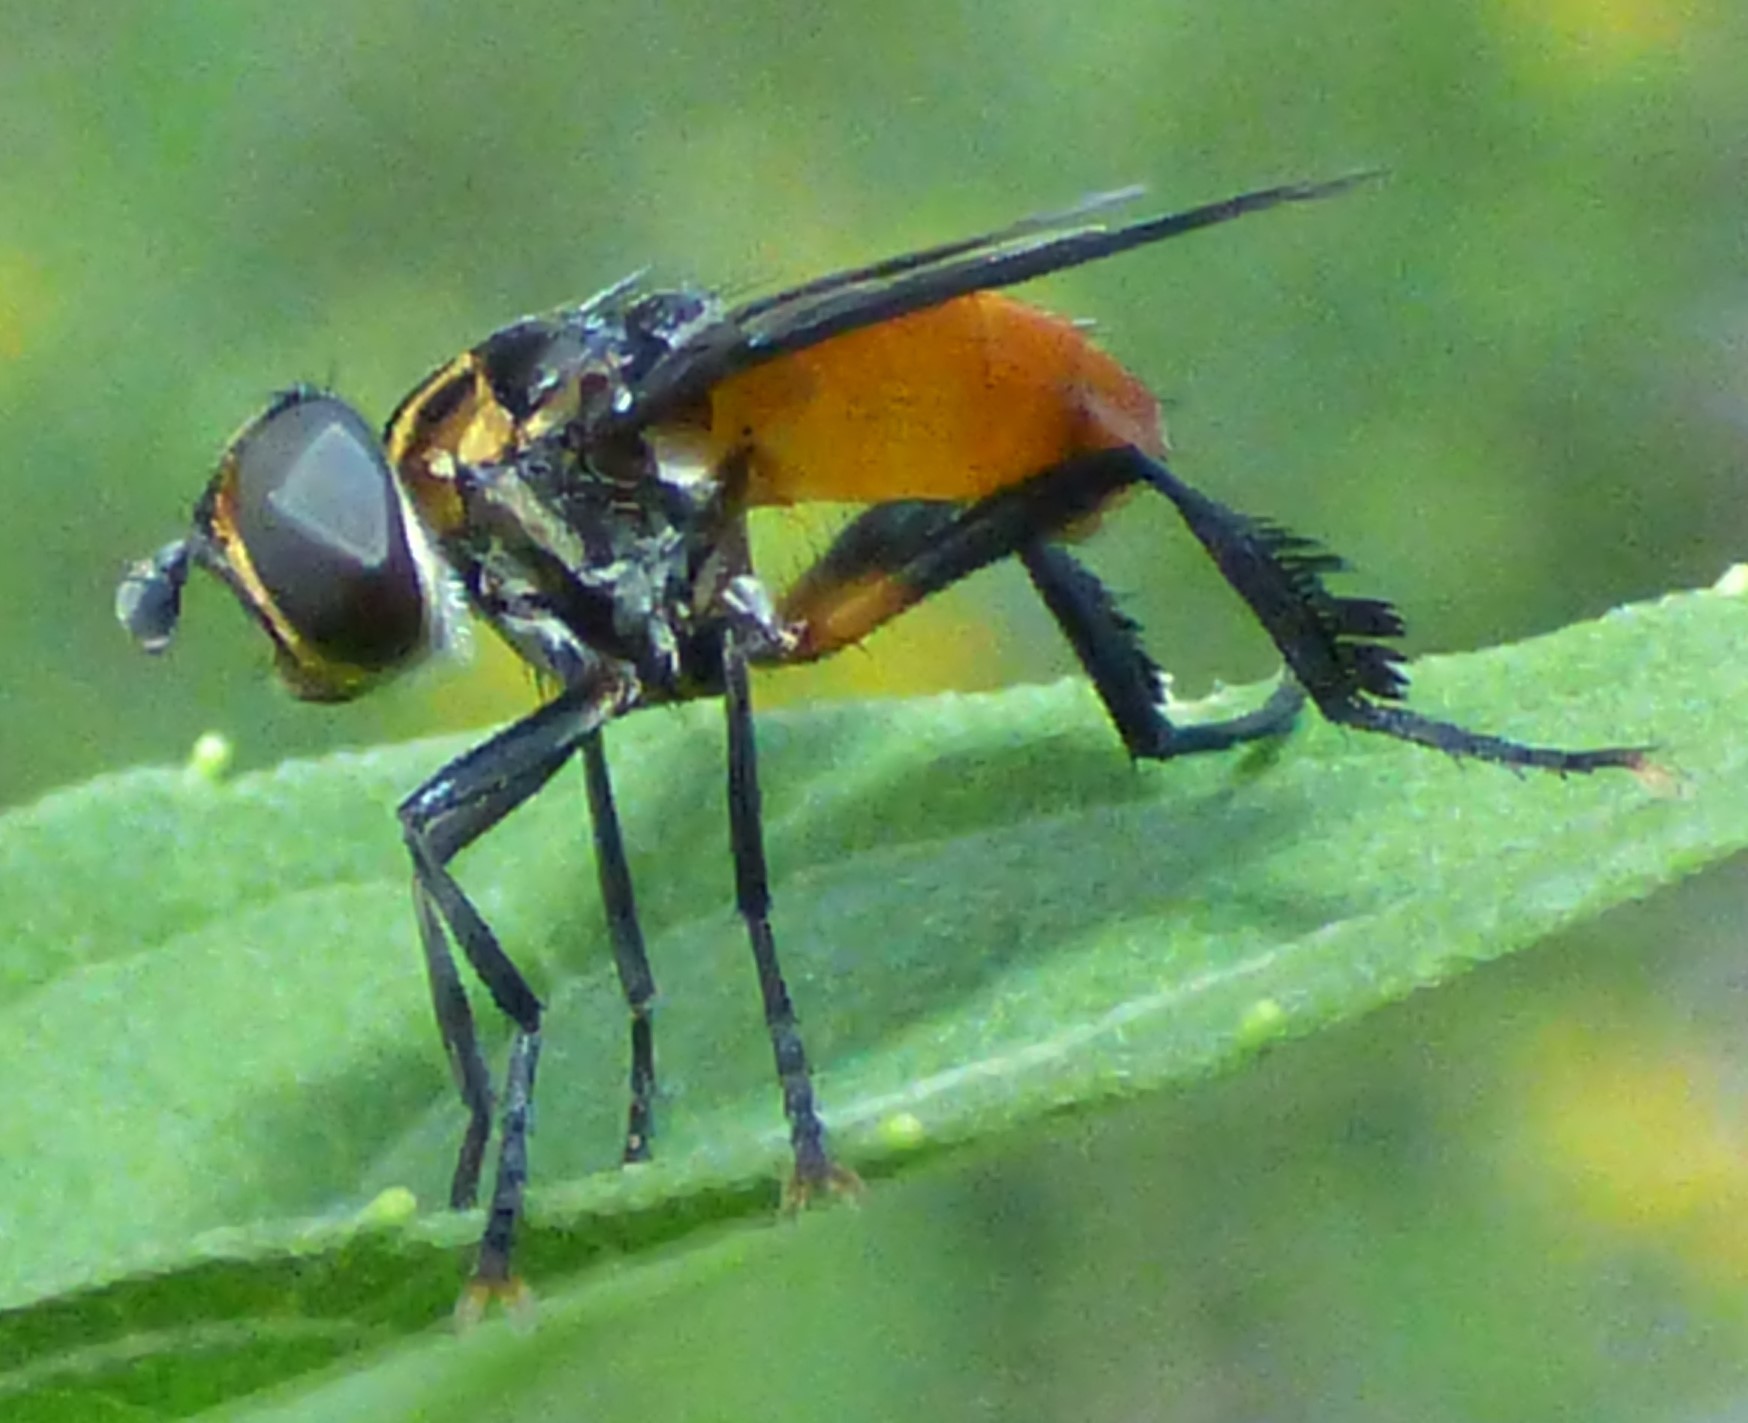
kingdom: Animalia
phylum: Arthropoda
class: Insecta
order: Diptera
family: Tachinidae
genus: Trichopoda
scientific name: Trichopoda pennipes
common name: Tachinid fly
